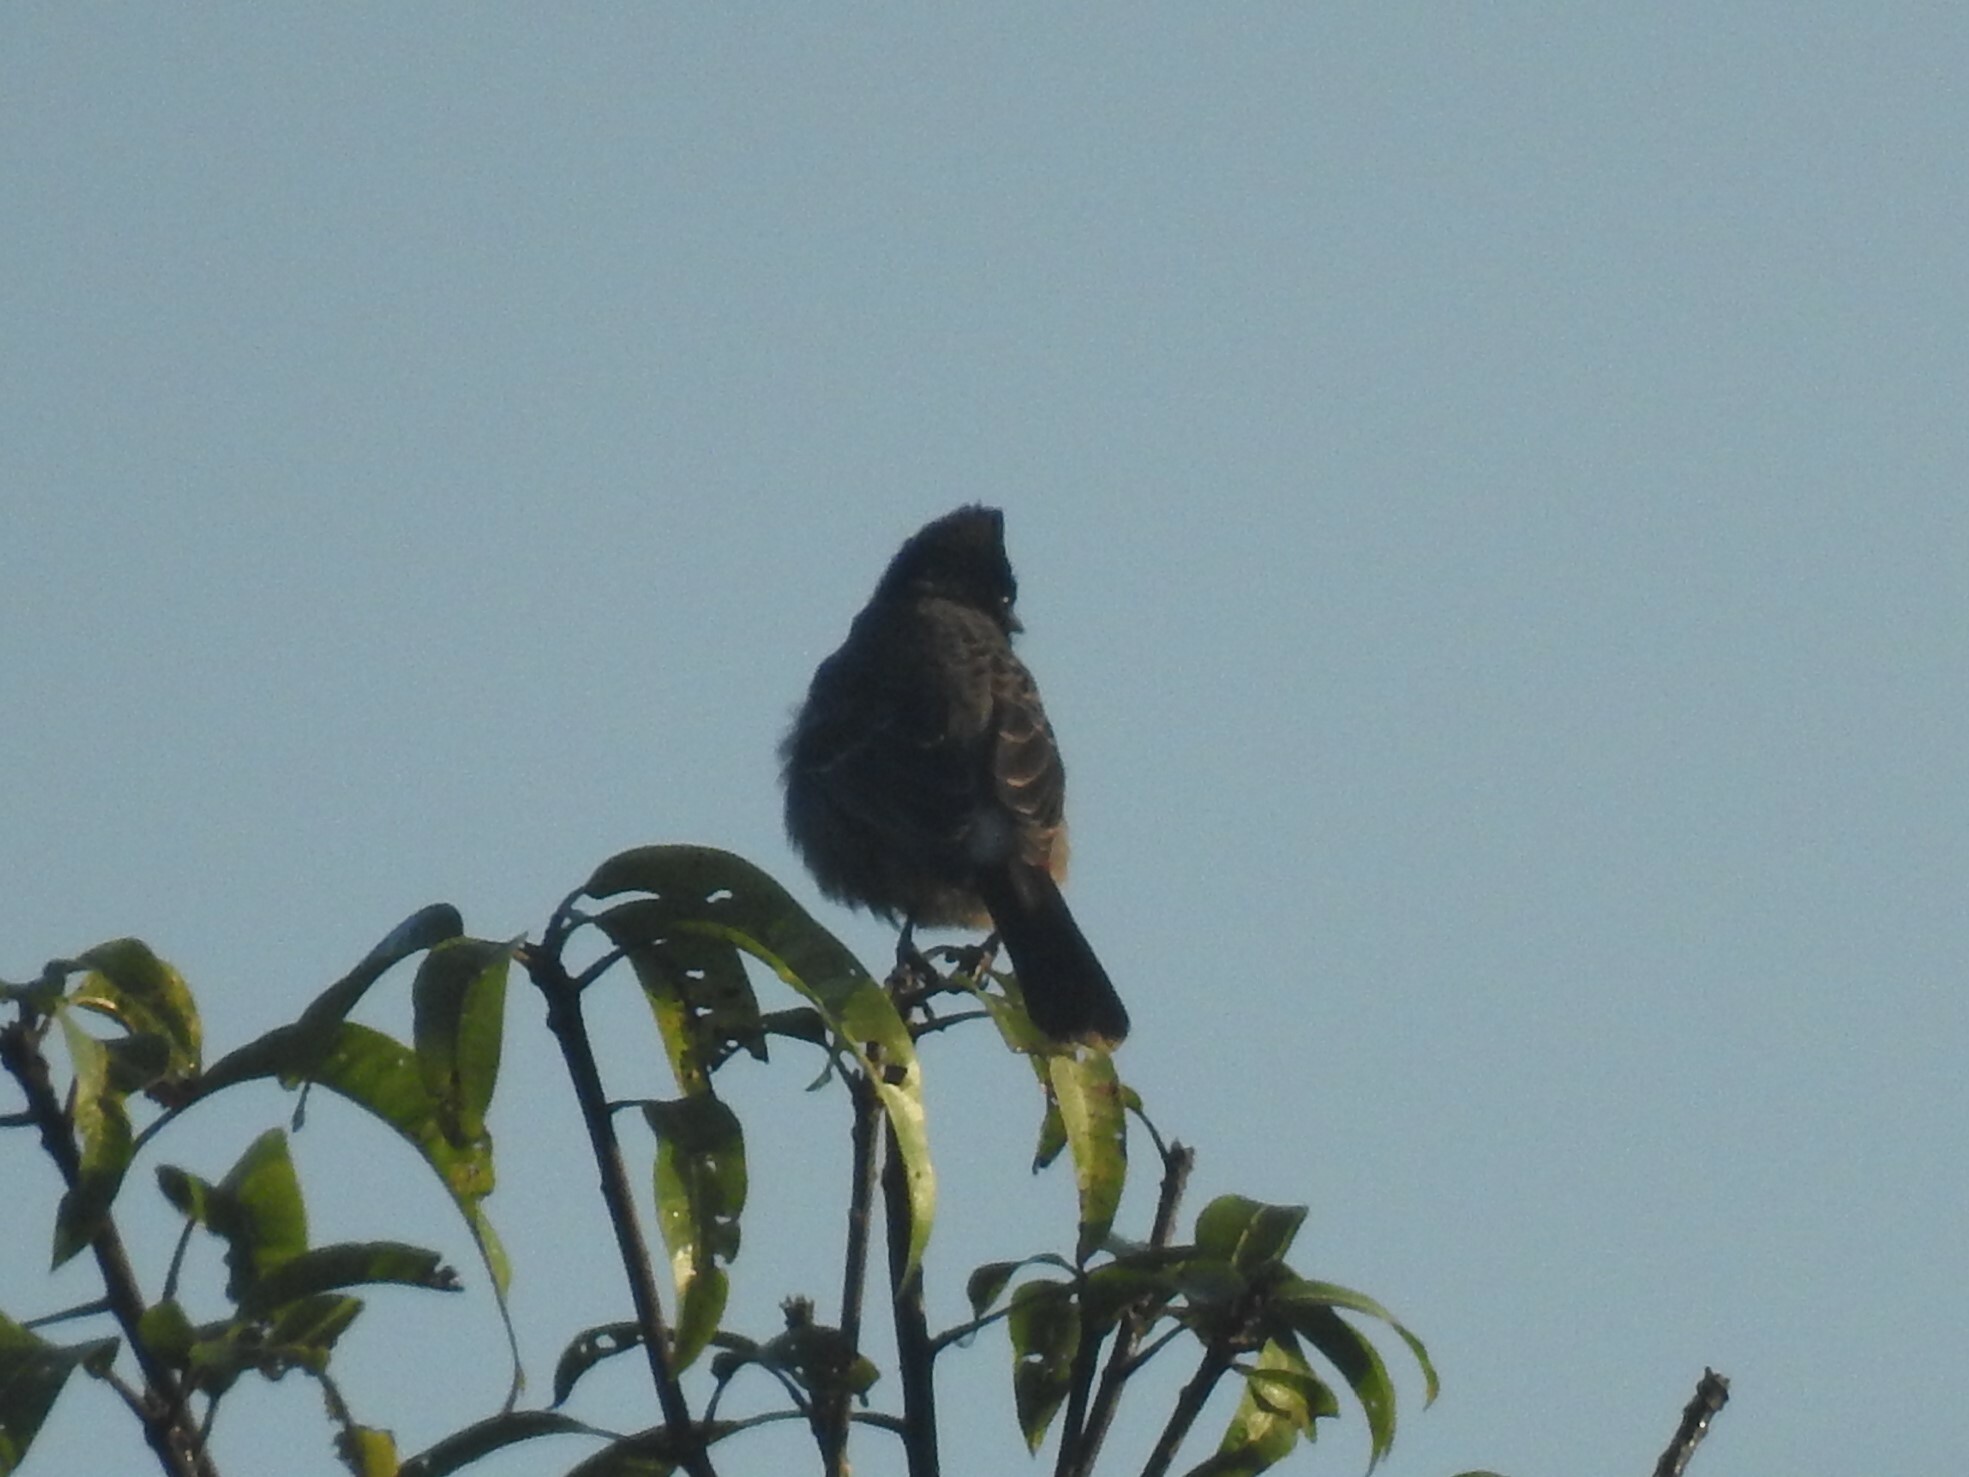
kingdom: Animalia
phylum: Chordata
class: Aves
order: Passeriformes
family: Pycnonotidae
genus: Pycnonotus
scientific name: Pycnonotus cafer
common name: Red-vented bulbul
